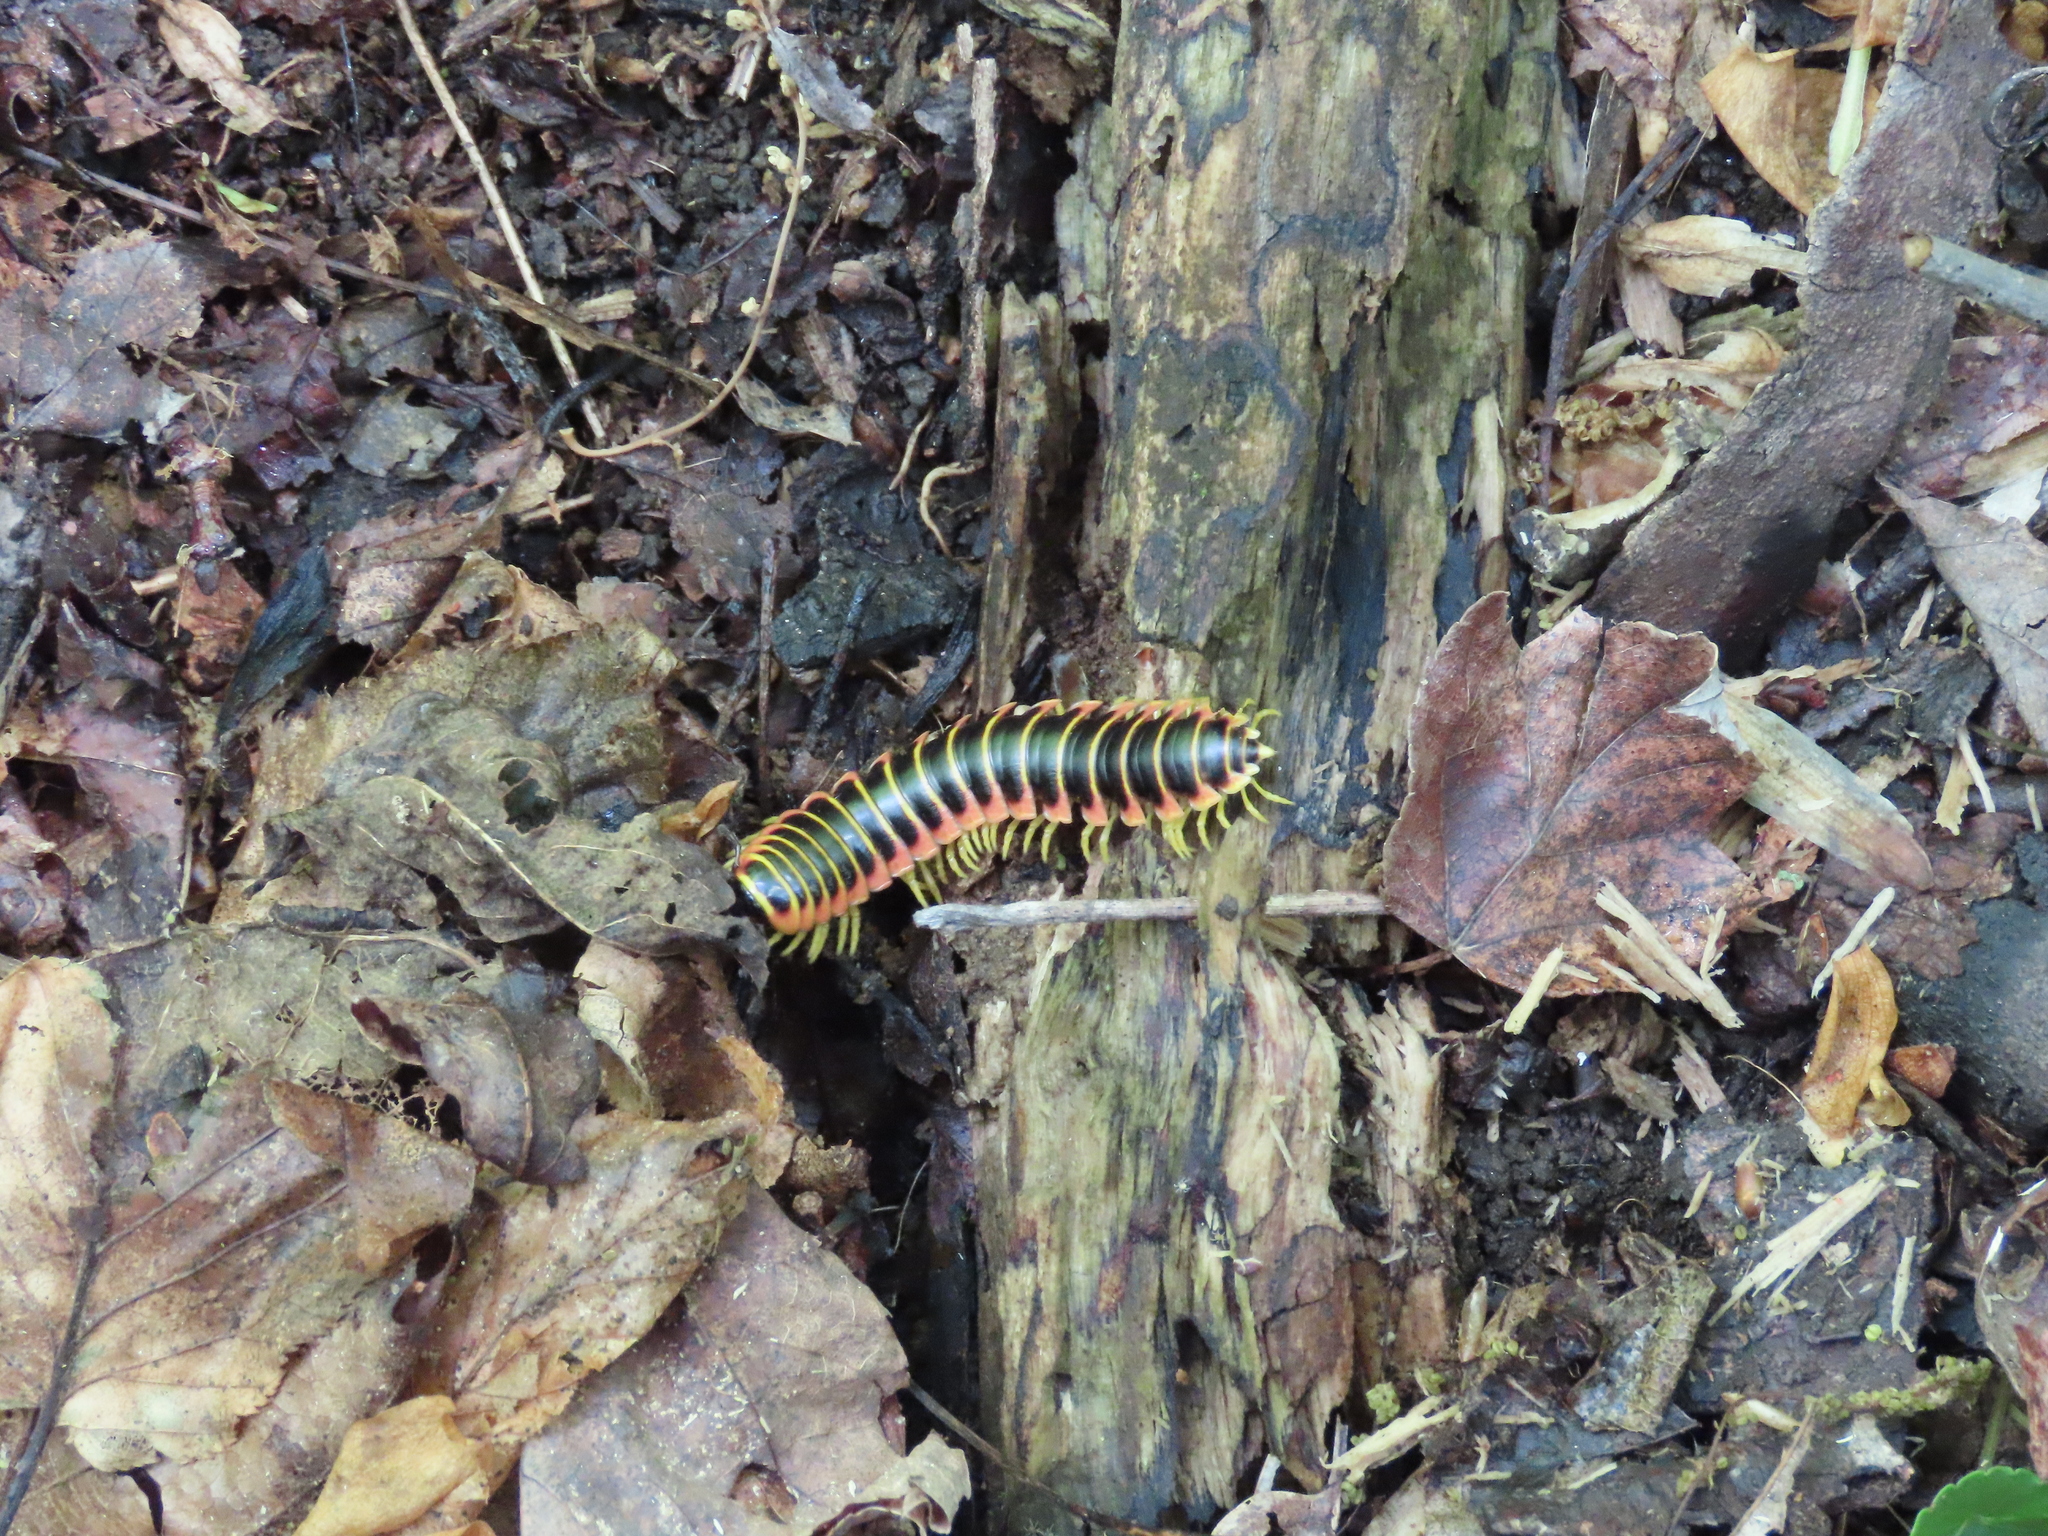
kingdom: Animalia
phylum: Arthropoda
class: Diplopoda
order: Polydesmida
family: Xystodesmidae
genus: Apheloria
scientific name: Apheloria virginiensis
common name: Black-and-gold flat millipede
